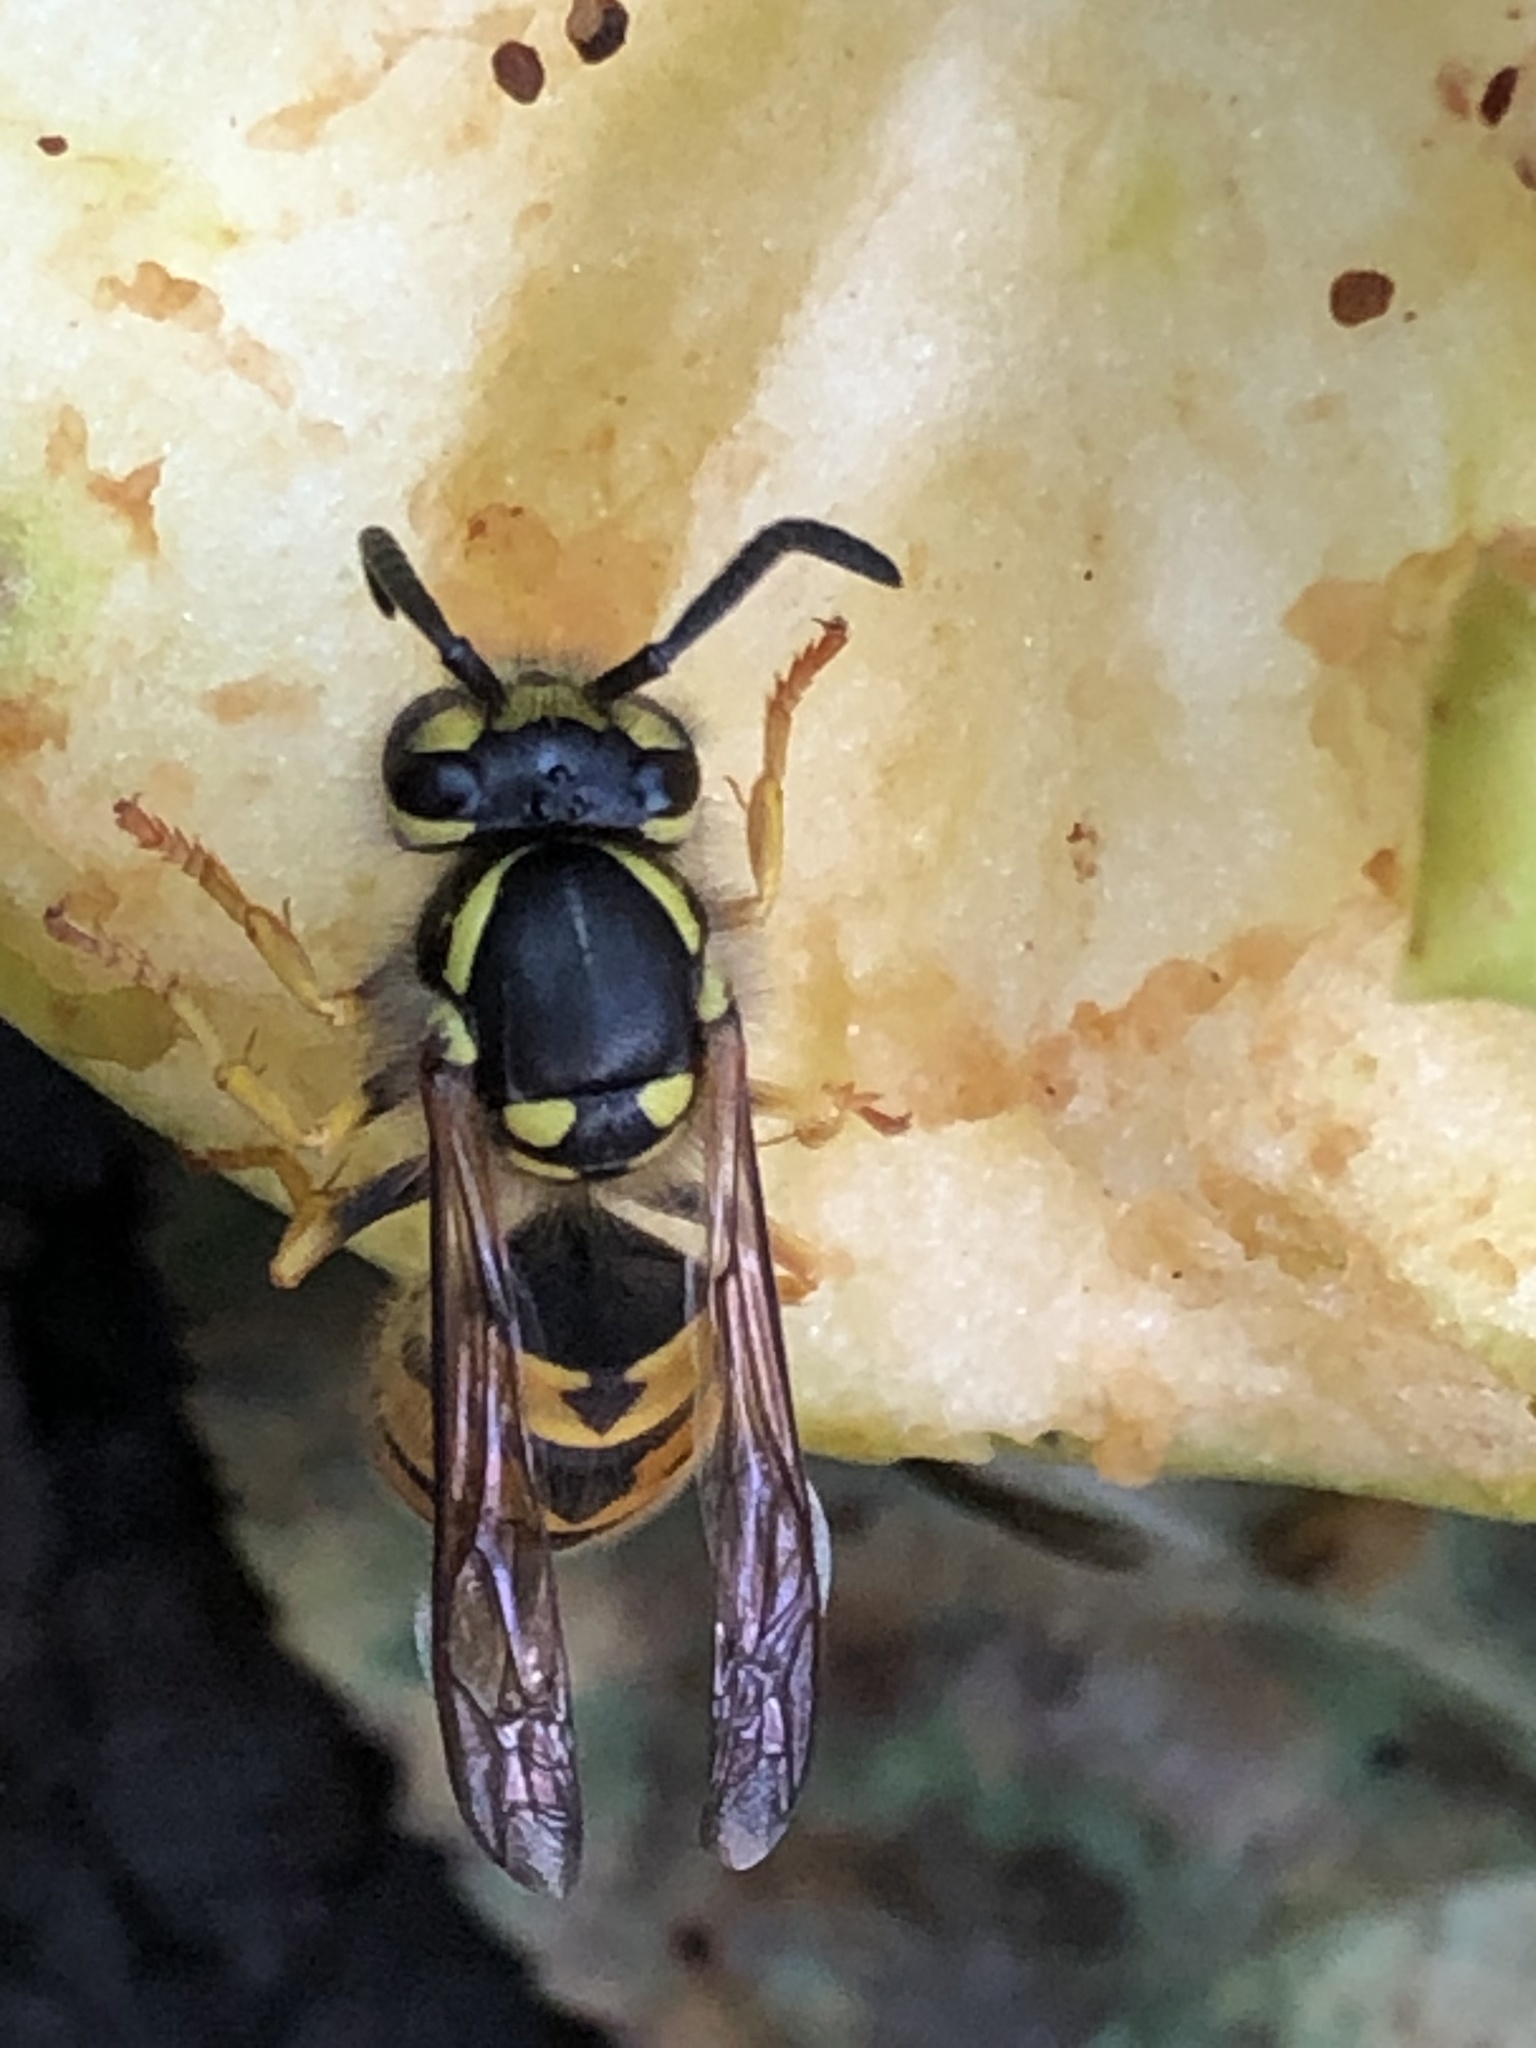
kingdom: Animalia
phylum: Arthropoda
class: Insecta
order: Hymenoptera
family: Vespidae
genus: Vespula
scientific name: Vespula germanica
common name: German wasp
